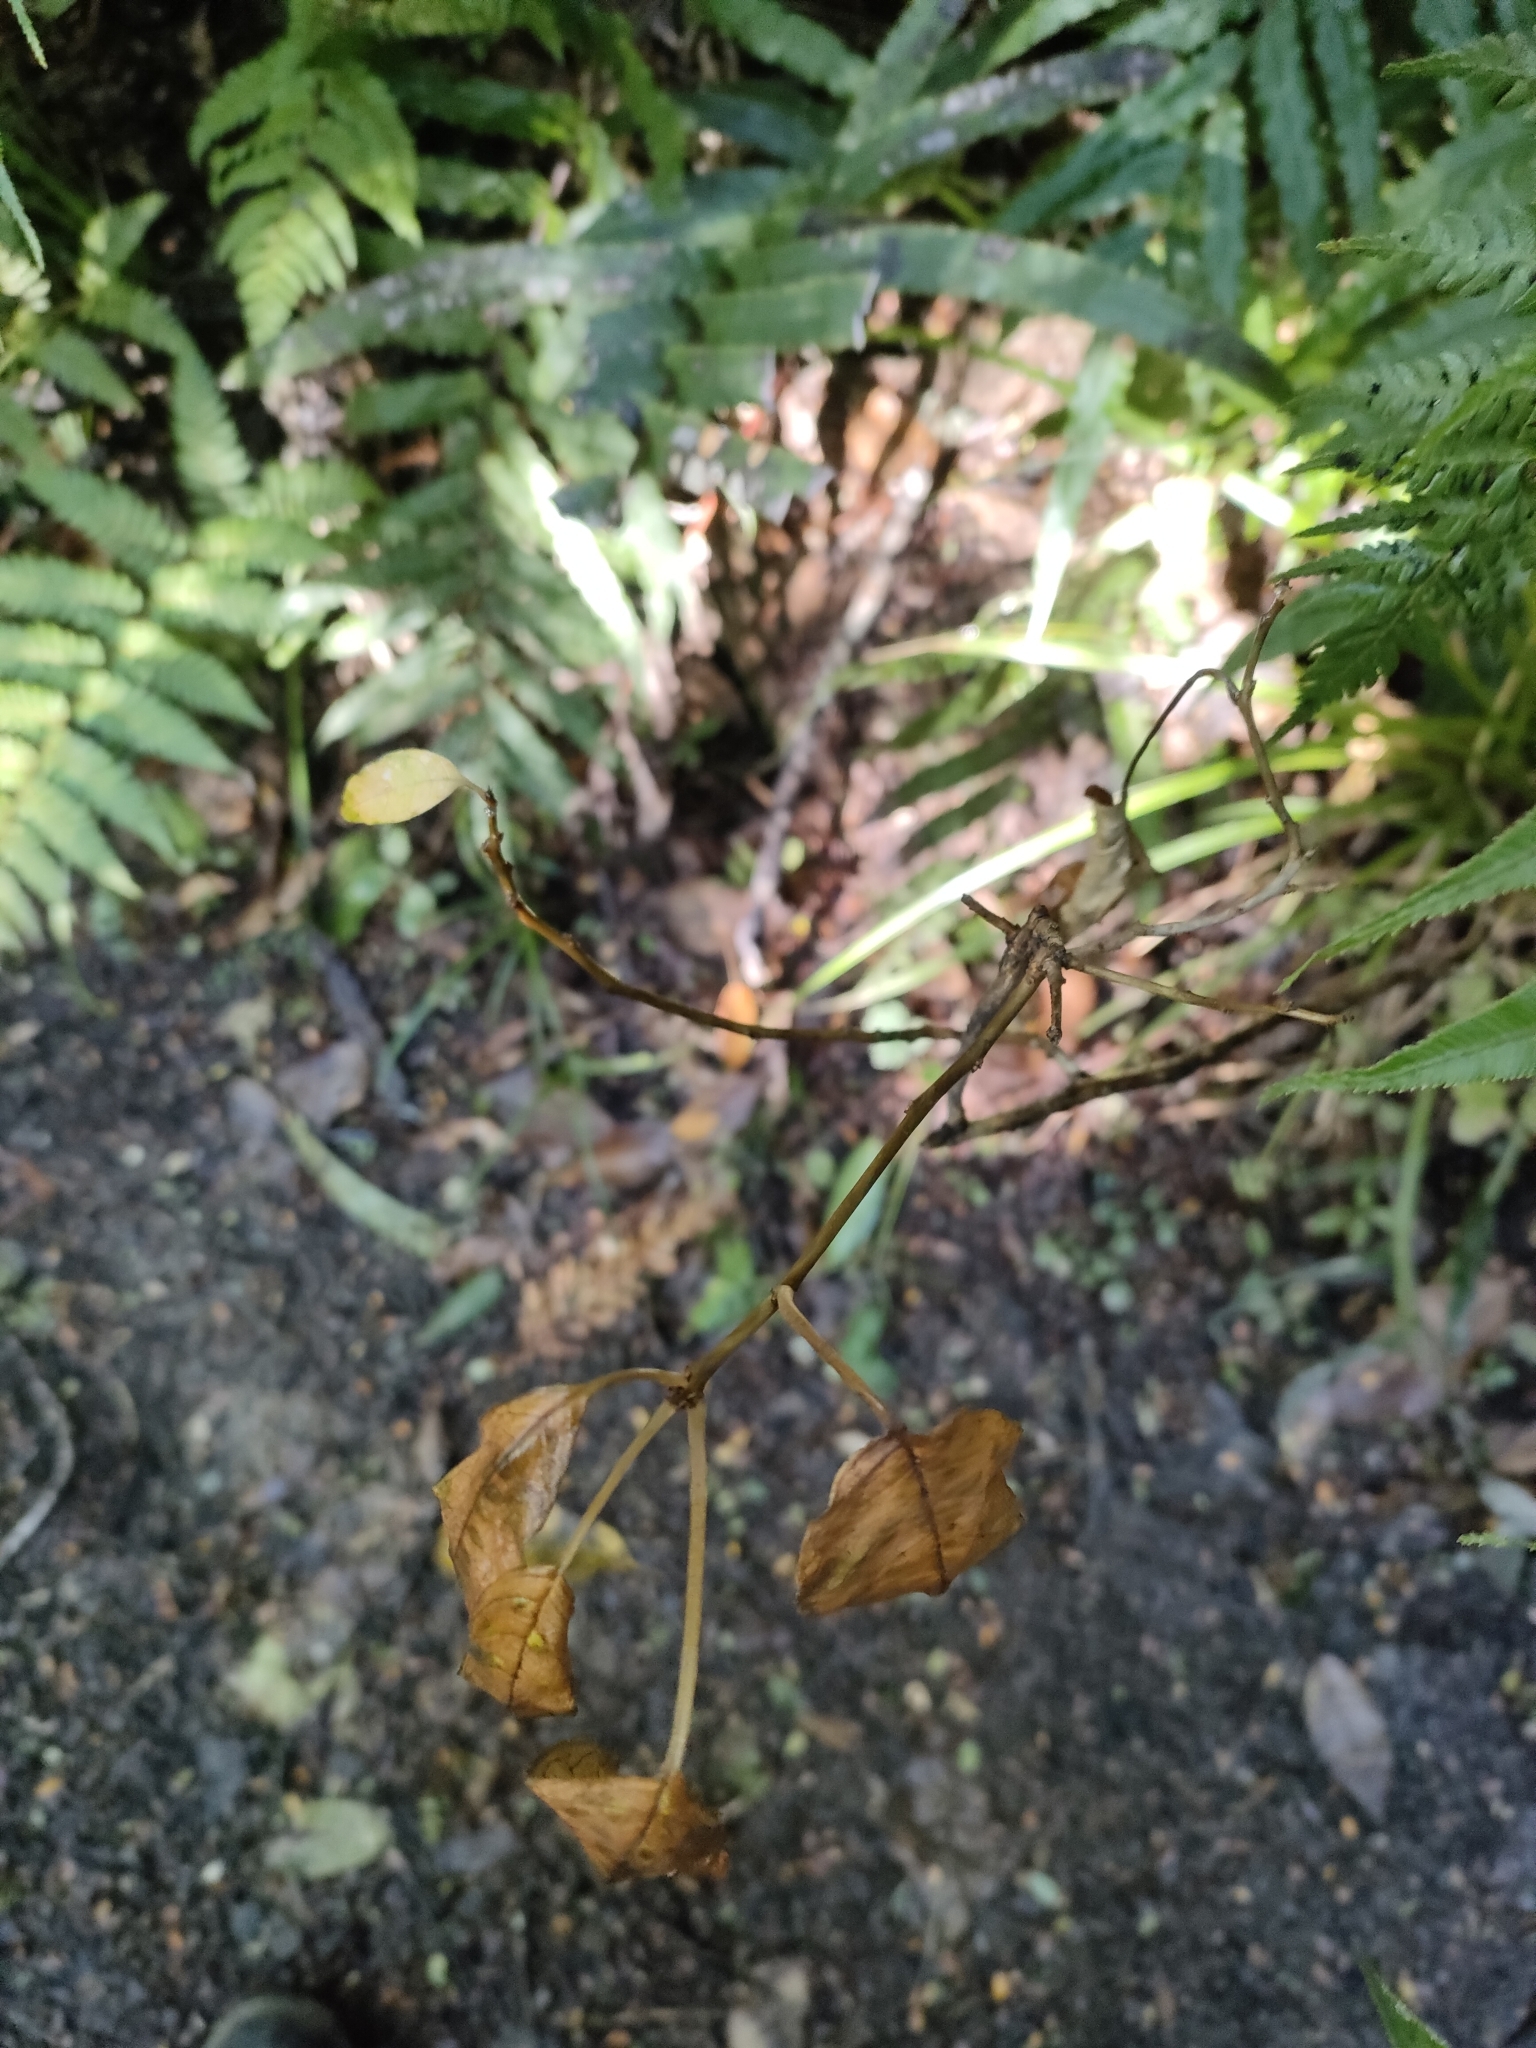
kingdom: Plantae
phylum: Tracheophyta
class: Magnoliopsida
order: Myrtales
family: Onagraceae
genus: Fuchsia
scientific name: Fuchsia excorticata
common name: Tree fuchsia
